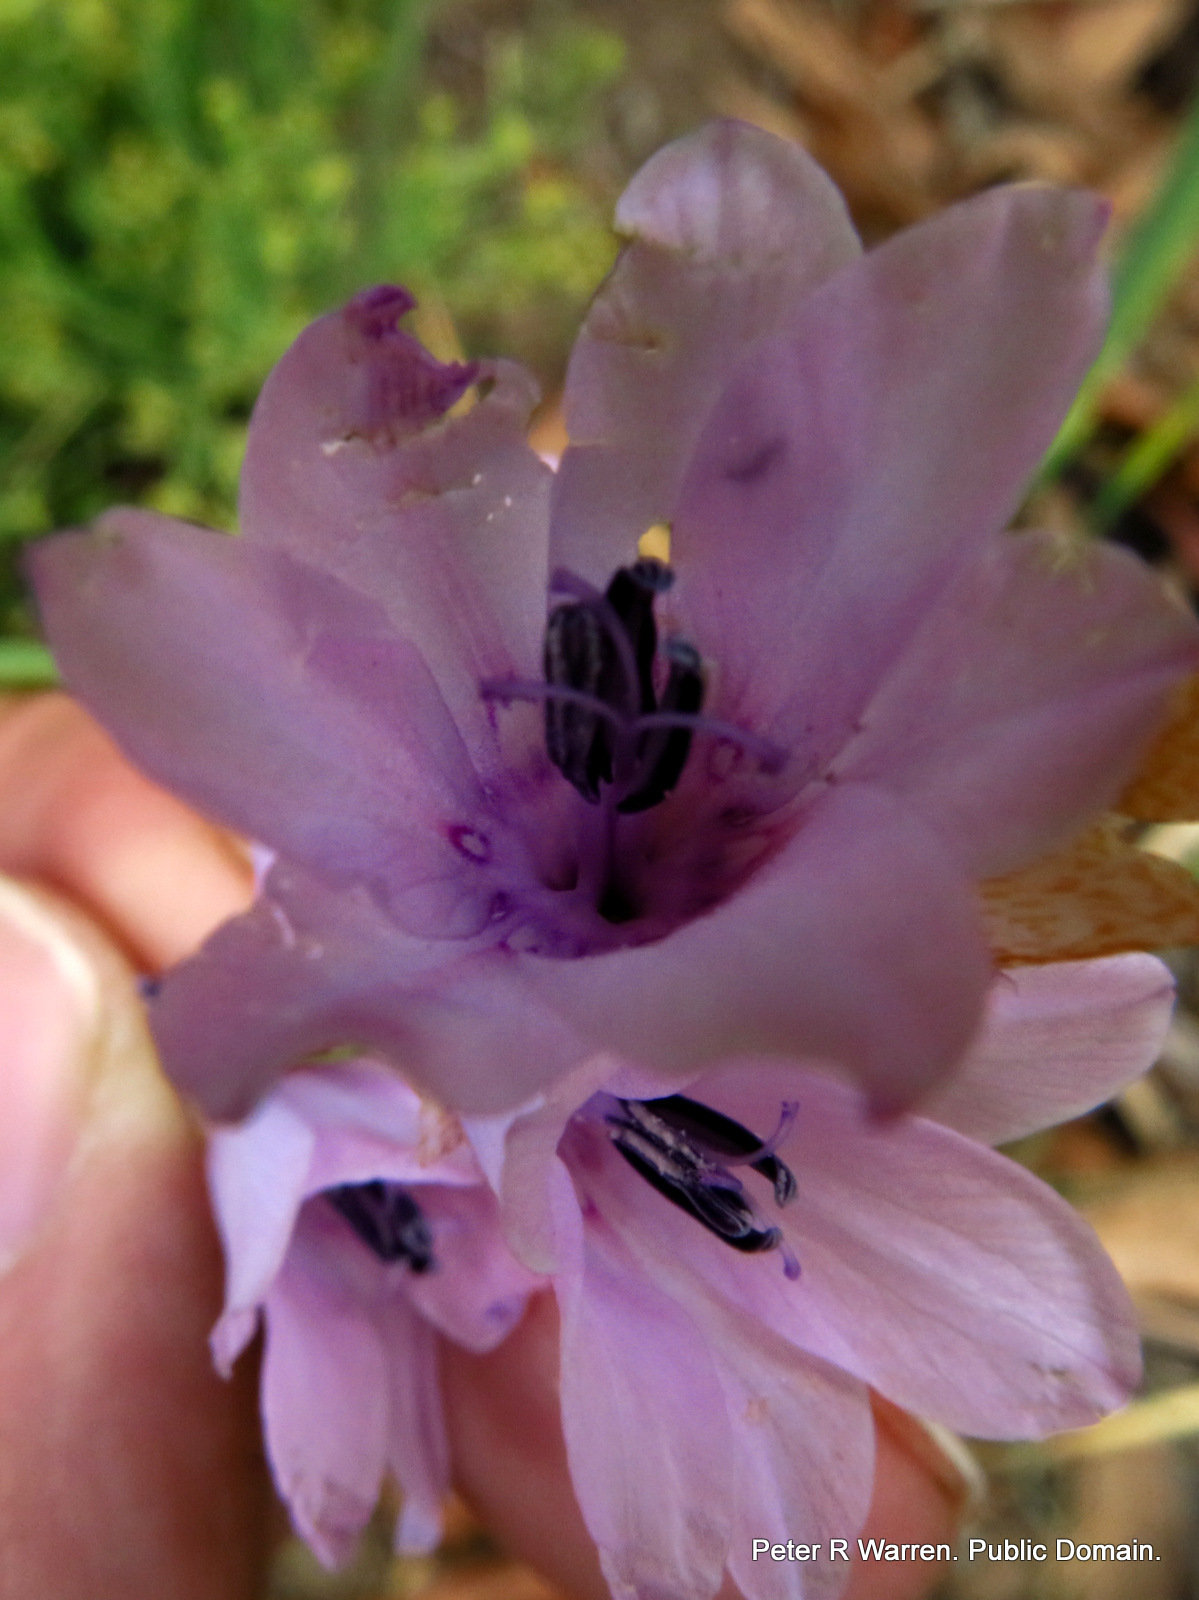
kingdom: Plantae
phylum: Tracheophyta
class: Liliopsida
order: Asparagales
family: Iridaceae
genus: Dierama
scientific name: Dierama trichorhizum
